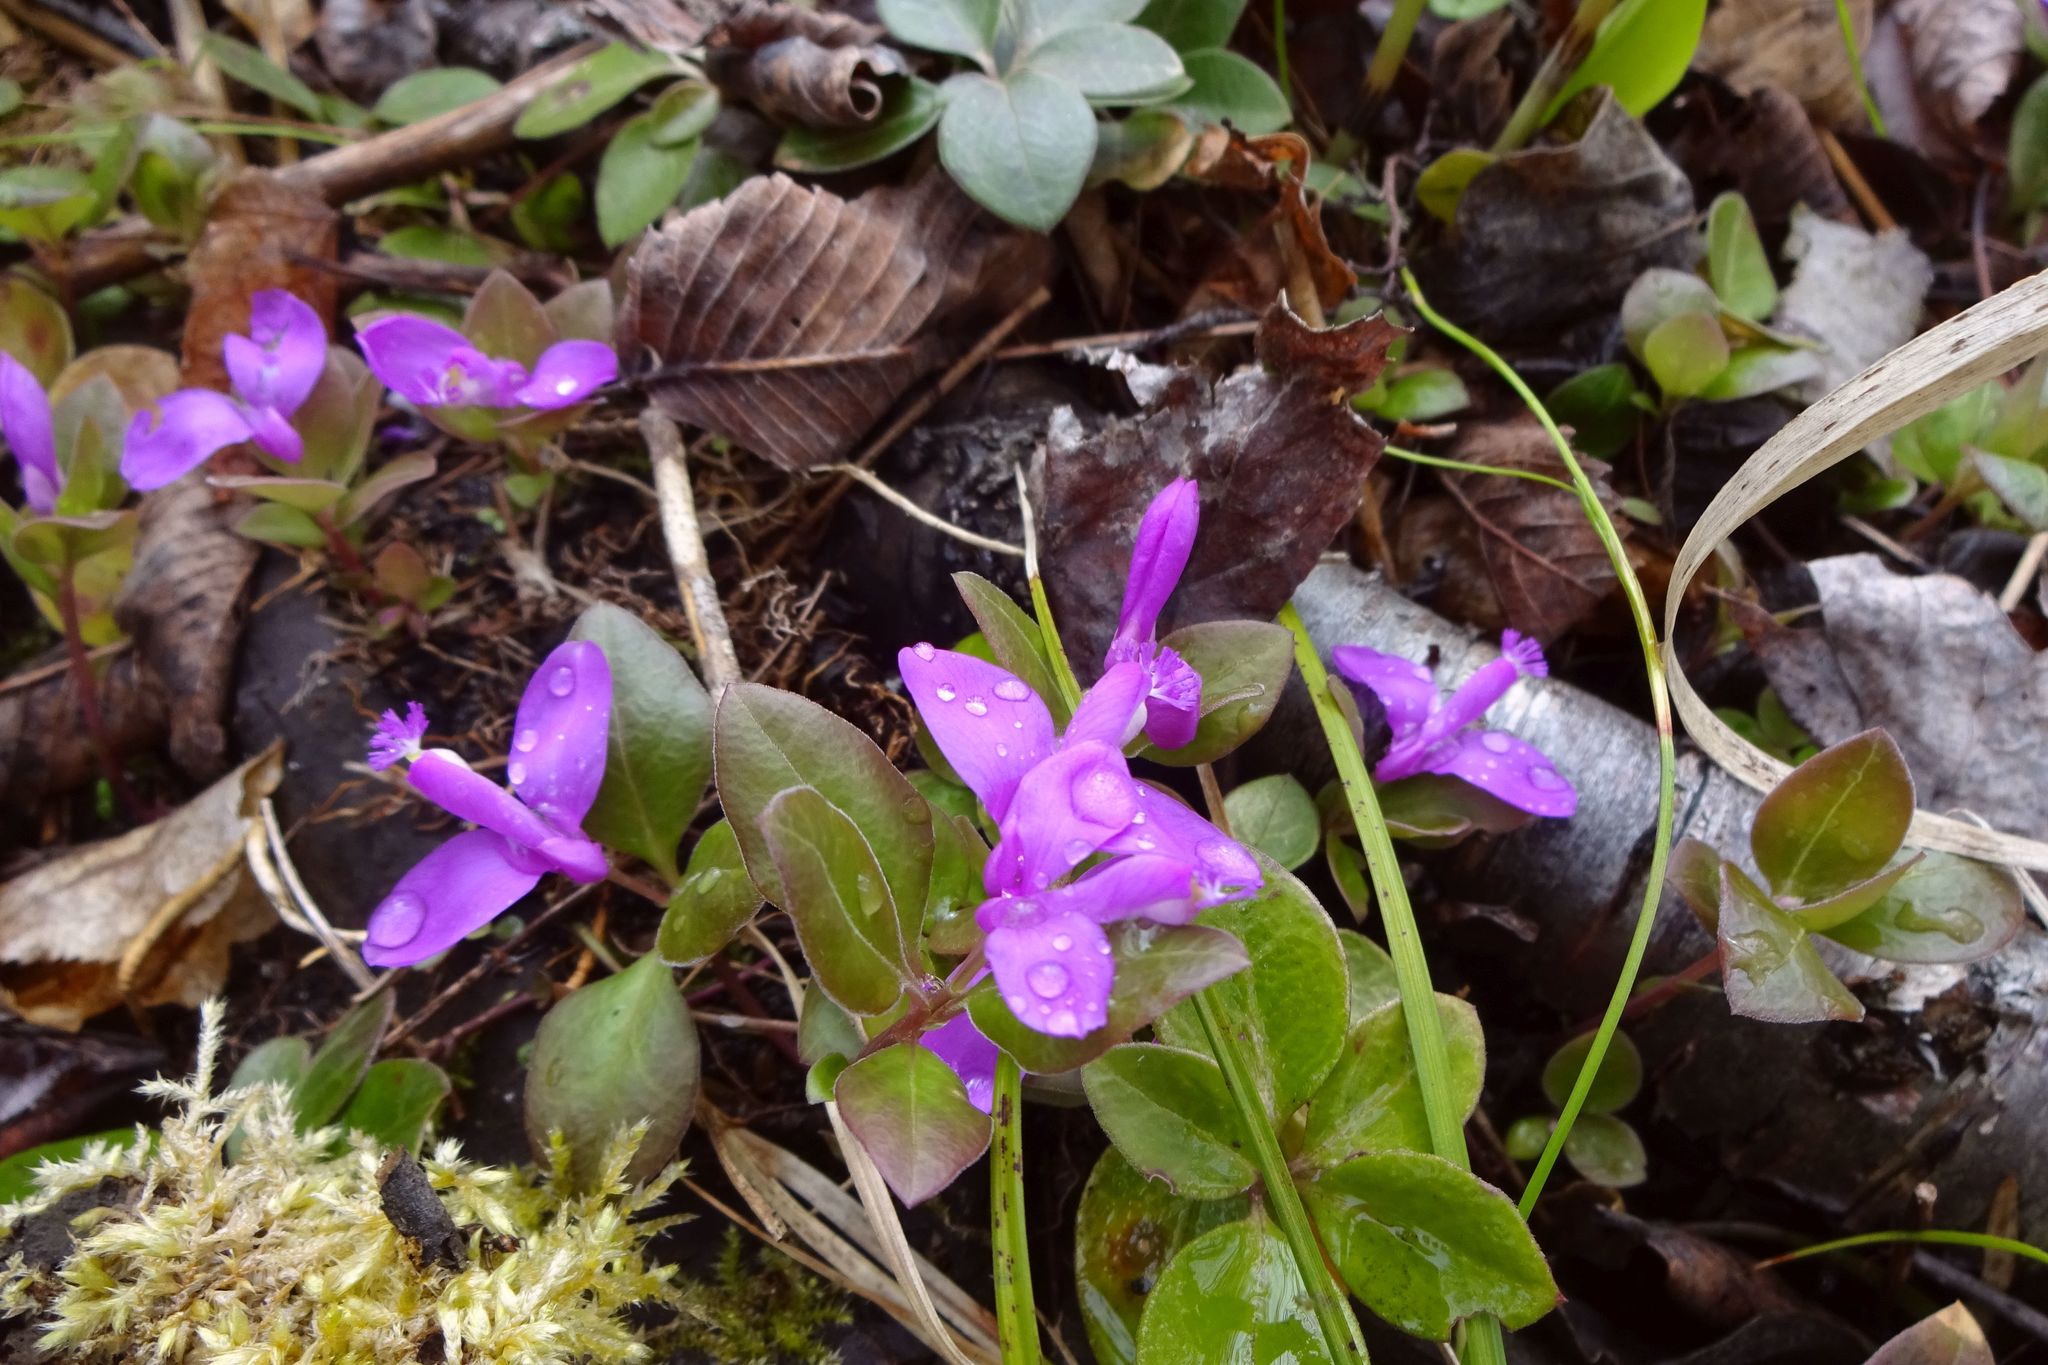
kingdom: Plantae
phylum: Tracheophyta
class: Magnoliopsida
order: Fabales
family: Polygalaceae
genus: Polygaloides
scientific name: Polygaloides paucifolia
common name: Bird-on-the-wing
